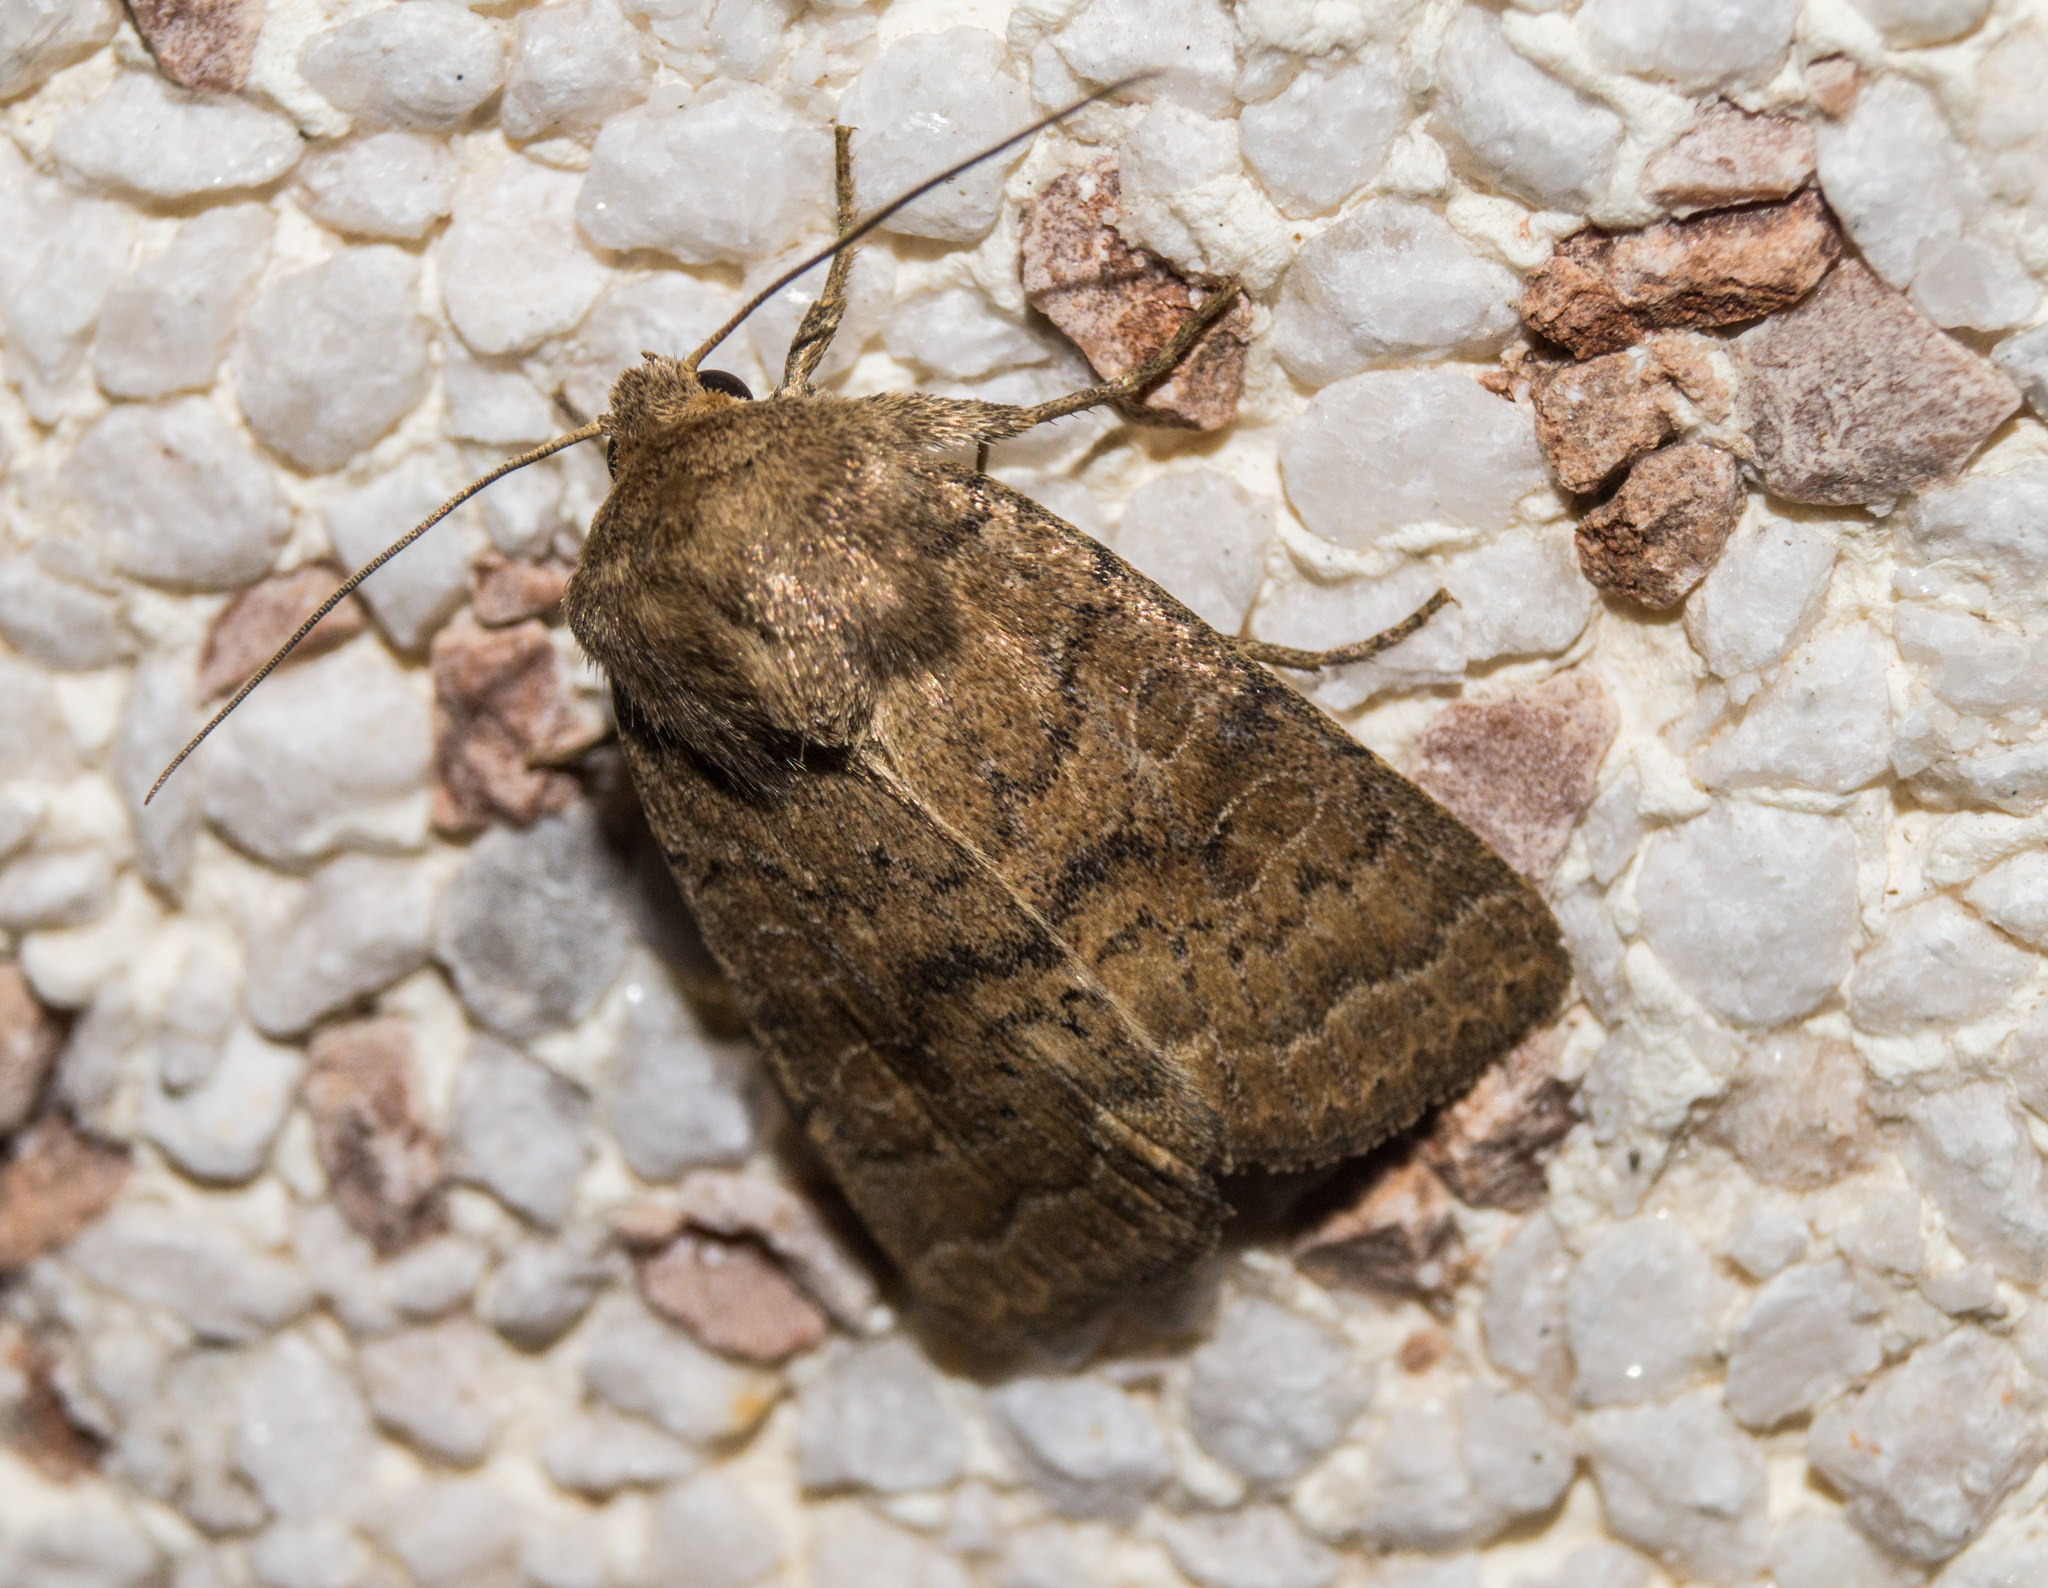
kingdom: Animalia
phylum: Arthropoda
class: Insecta
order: Lepidoptera
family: Noctuidae
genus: Hoplodrina
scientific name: Hoplodrina octogenaria
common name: Uncertain
